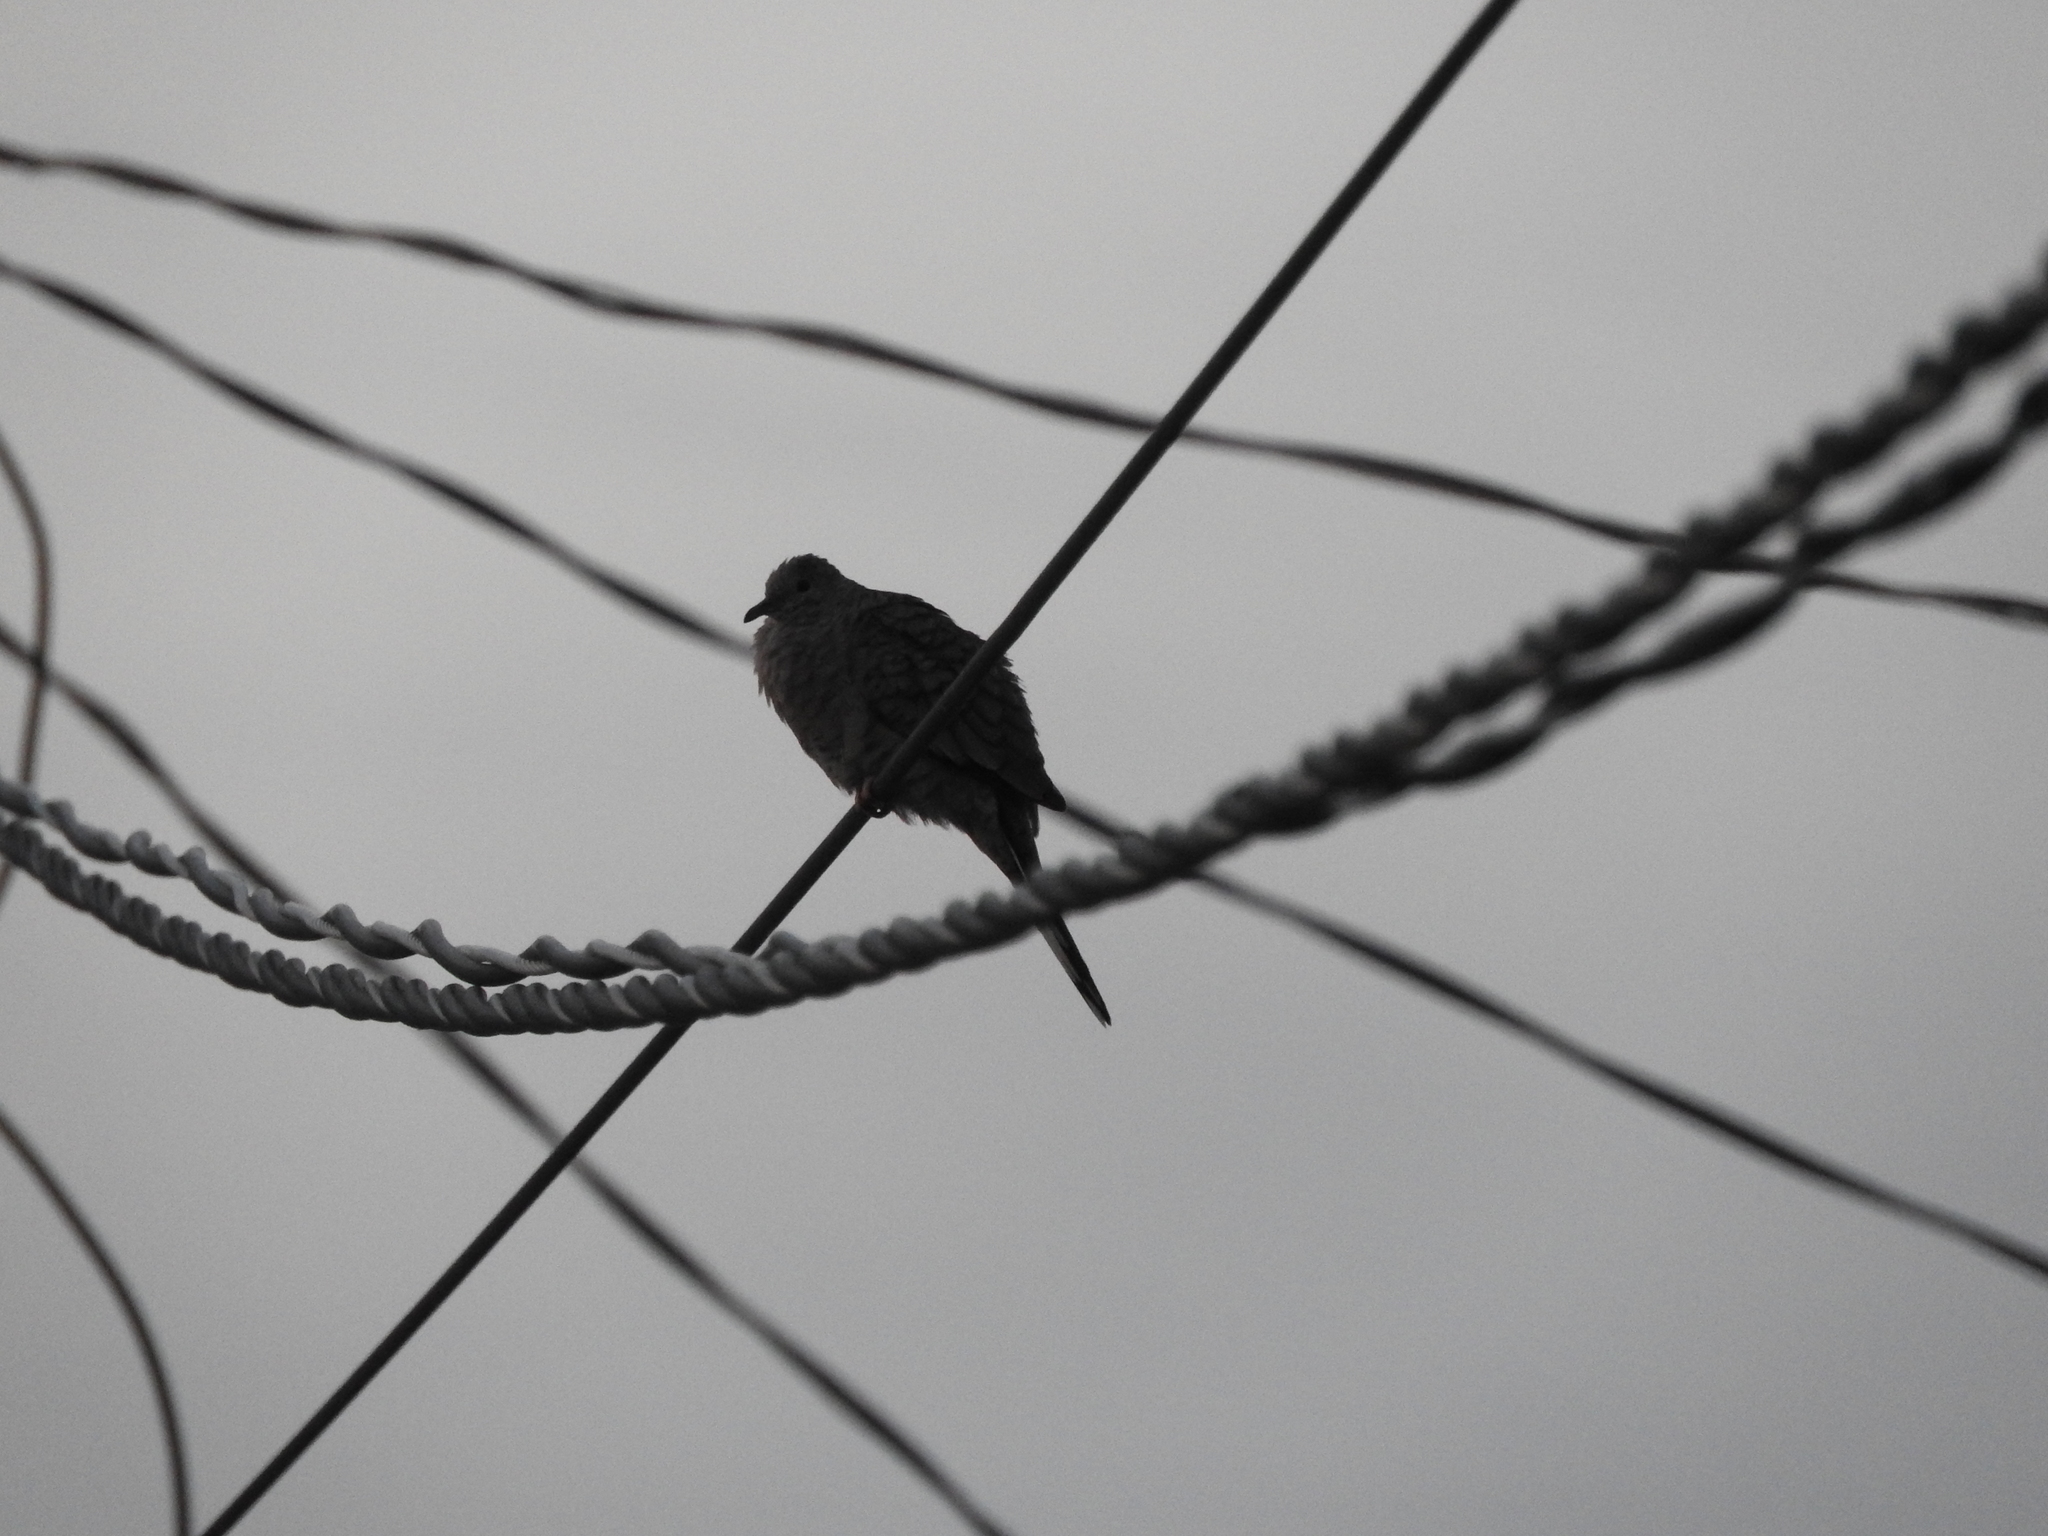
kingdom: Animalia
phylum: Chordata
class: Aves
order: Columbiformes
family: Columbidae
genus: Columbina
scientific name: Columbina inca
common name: Inca dove
